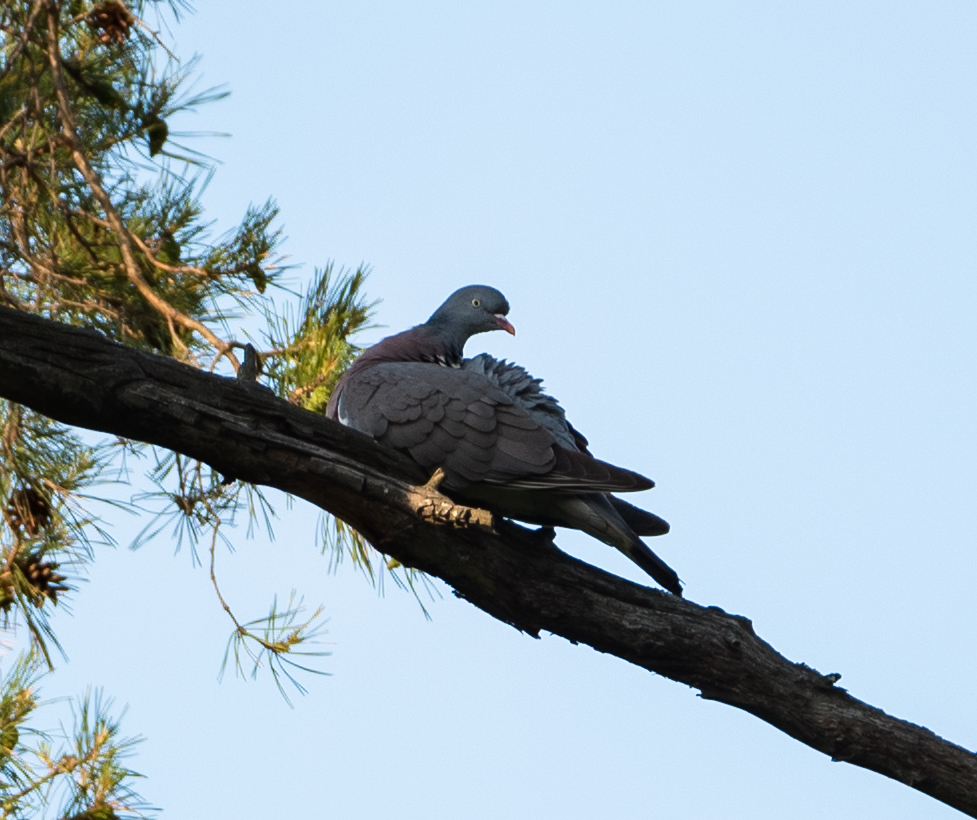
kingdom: Animalia
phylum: Chordata
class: Aves
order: Columbiformes
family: Columbidae
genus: Columba
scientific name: Columba palumbus
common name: Common wood pigeon
